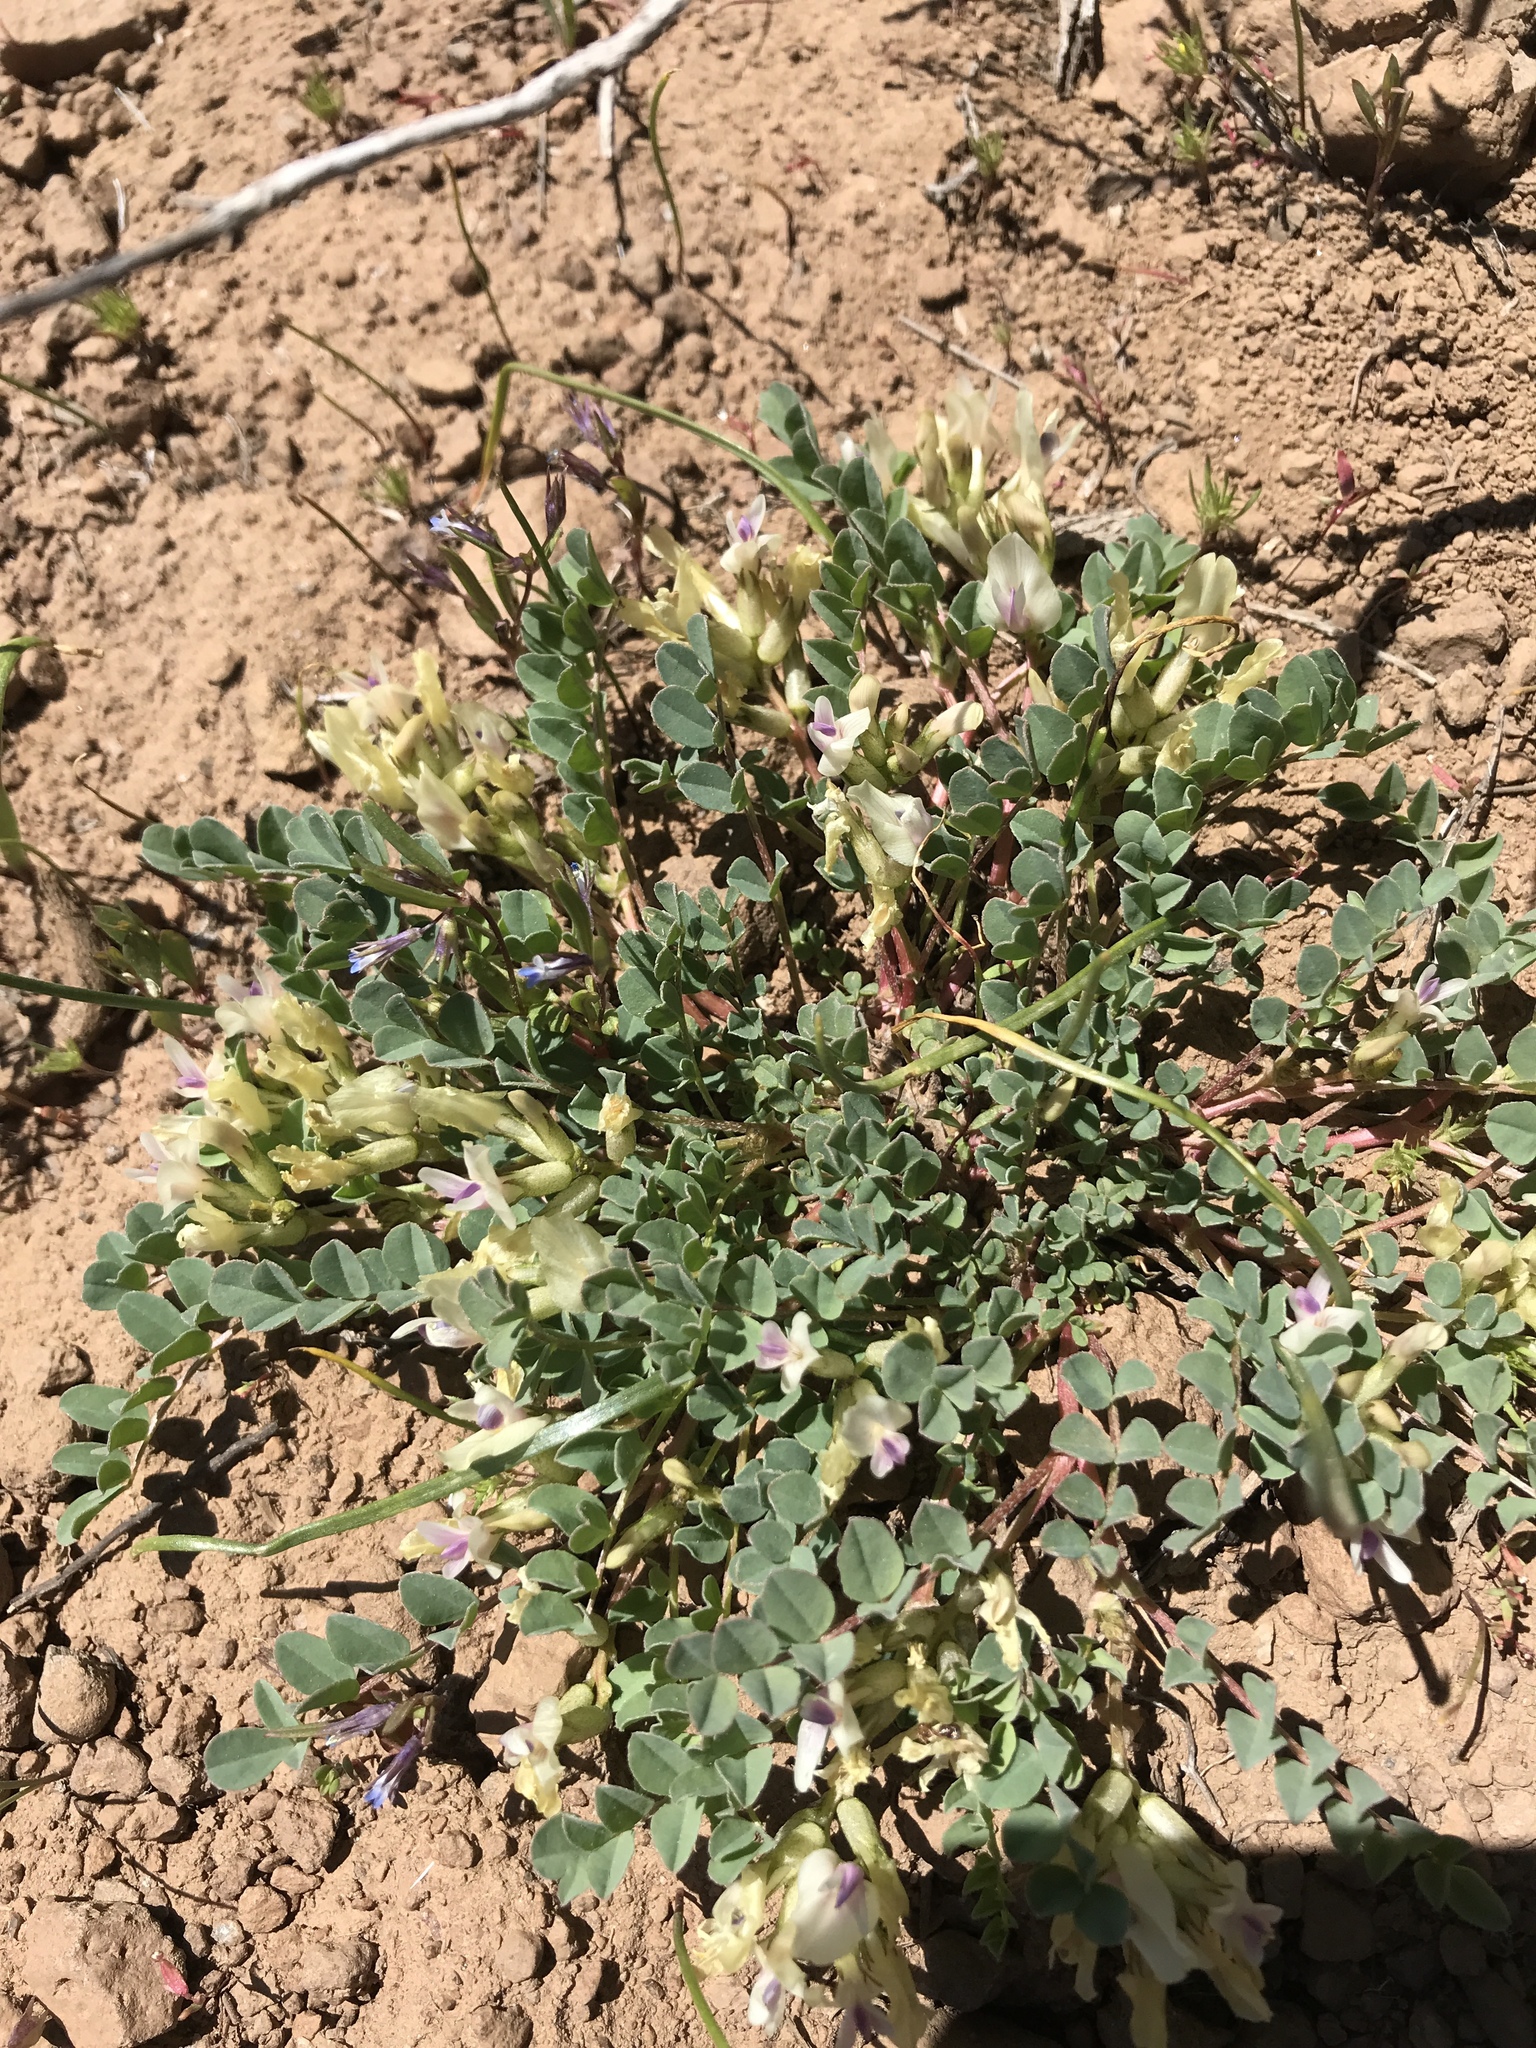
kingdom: Plantae
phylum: Tracheophyta
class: Magnoliopsida
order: Fabales
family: Fabaceae
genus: Astragalus
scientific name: Astragalus lentiginosus
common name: Freckled milkvetch
